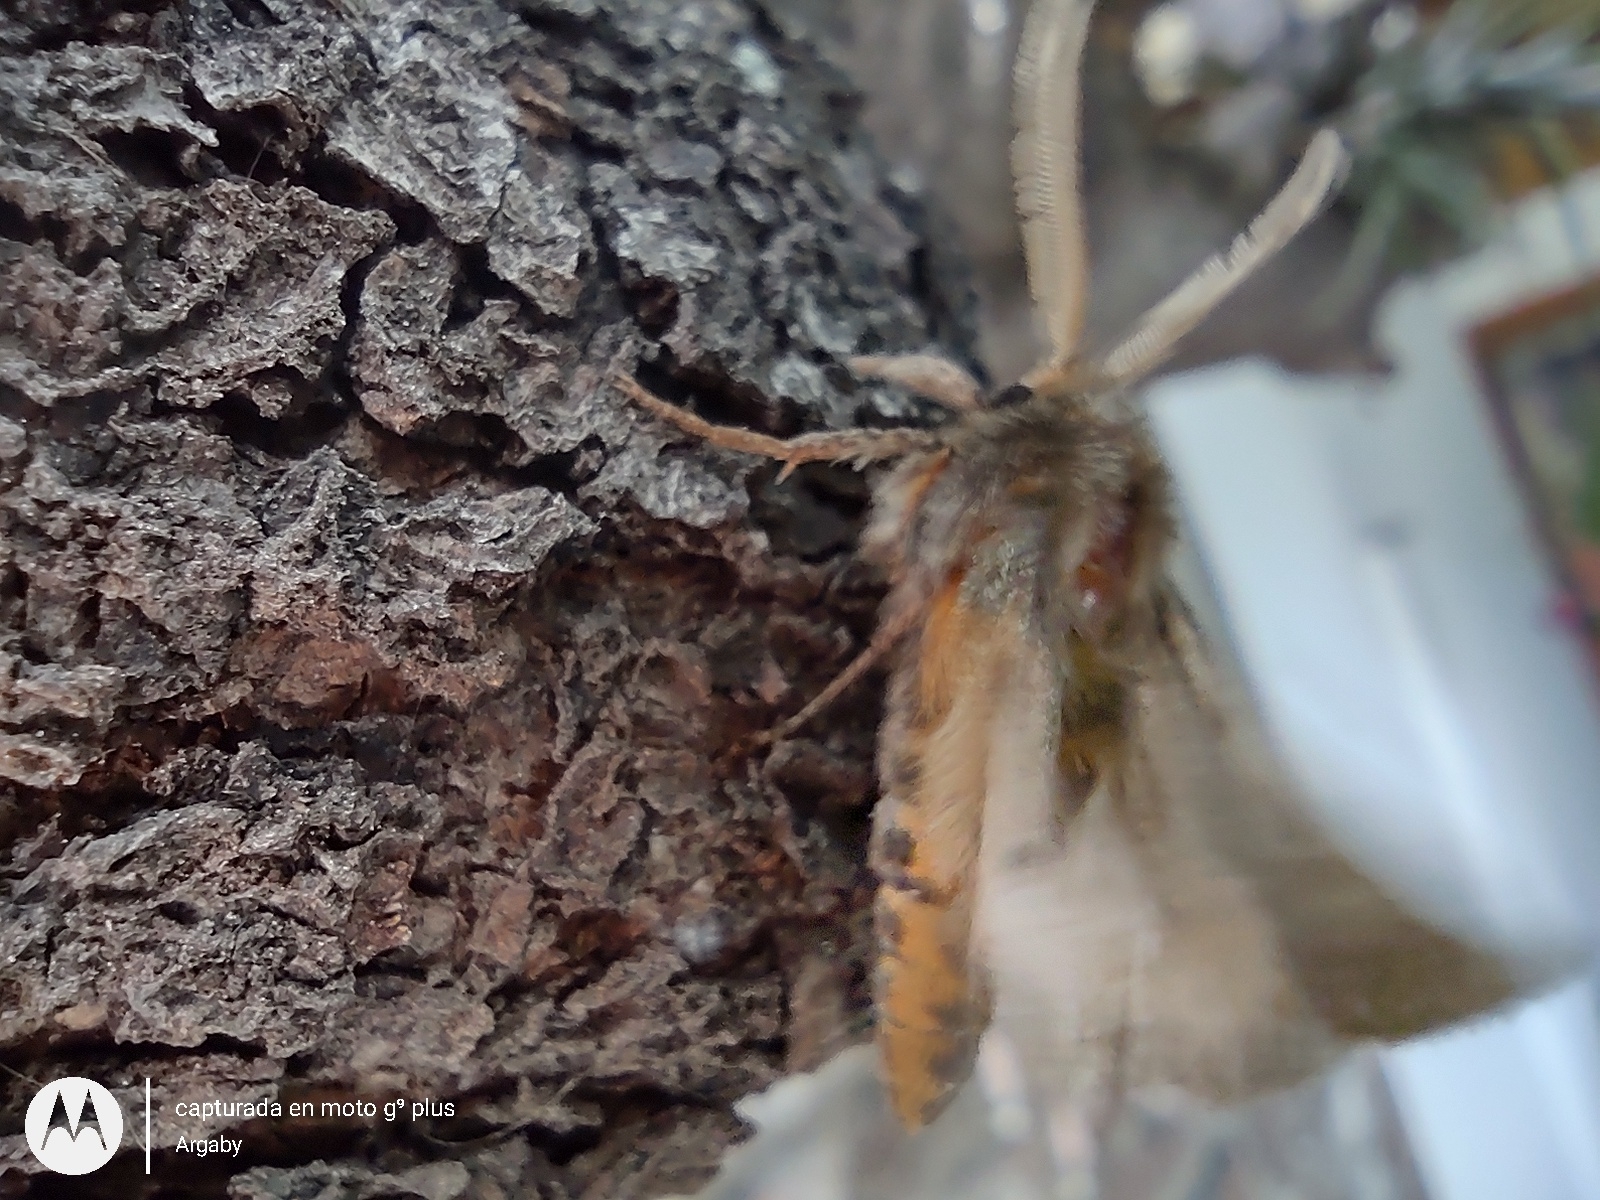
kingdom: Animalia
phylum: Arthropoda
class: Insecta
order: Lepidoptera
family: Erebidae
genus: Paracles
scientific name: Paracles fusca
